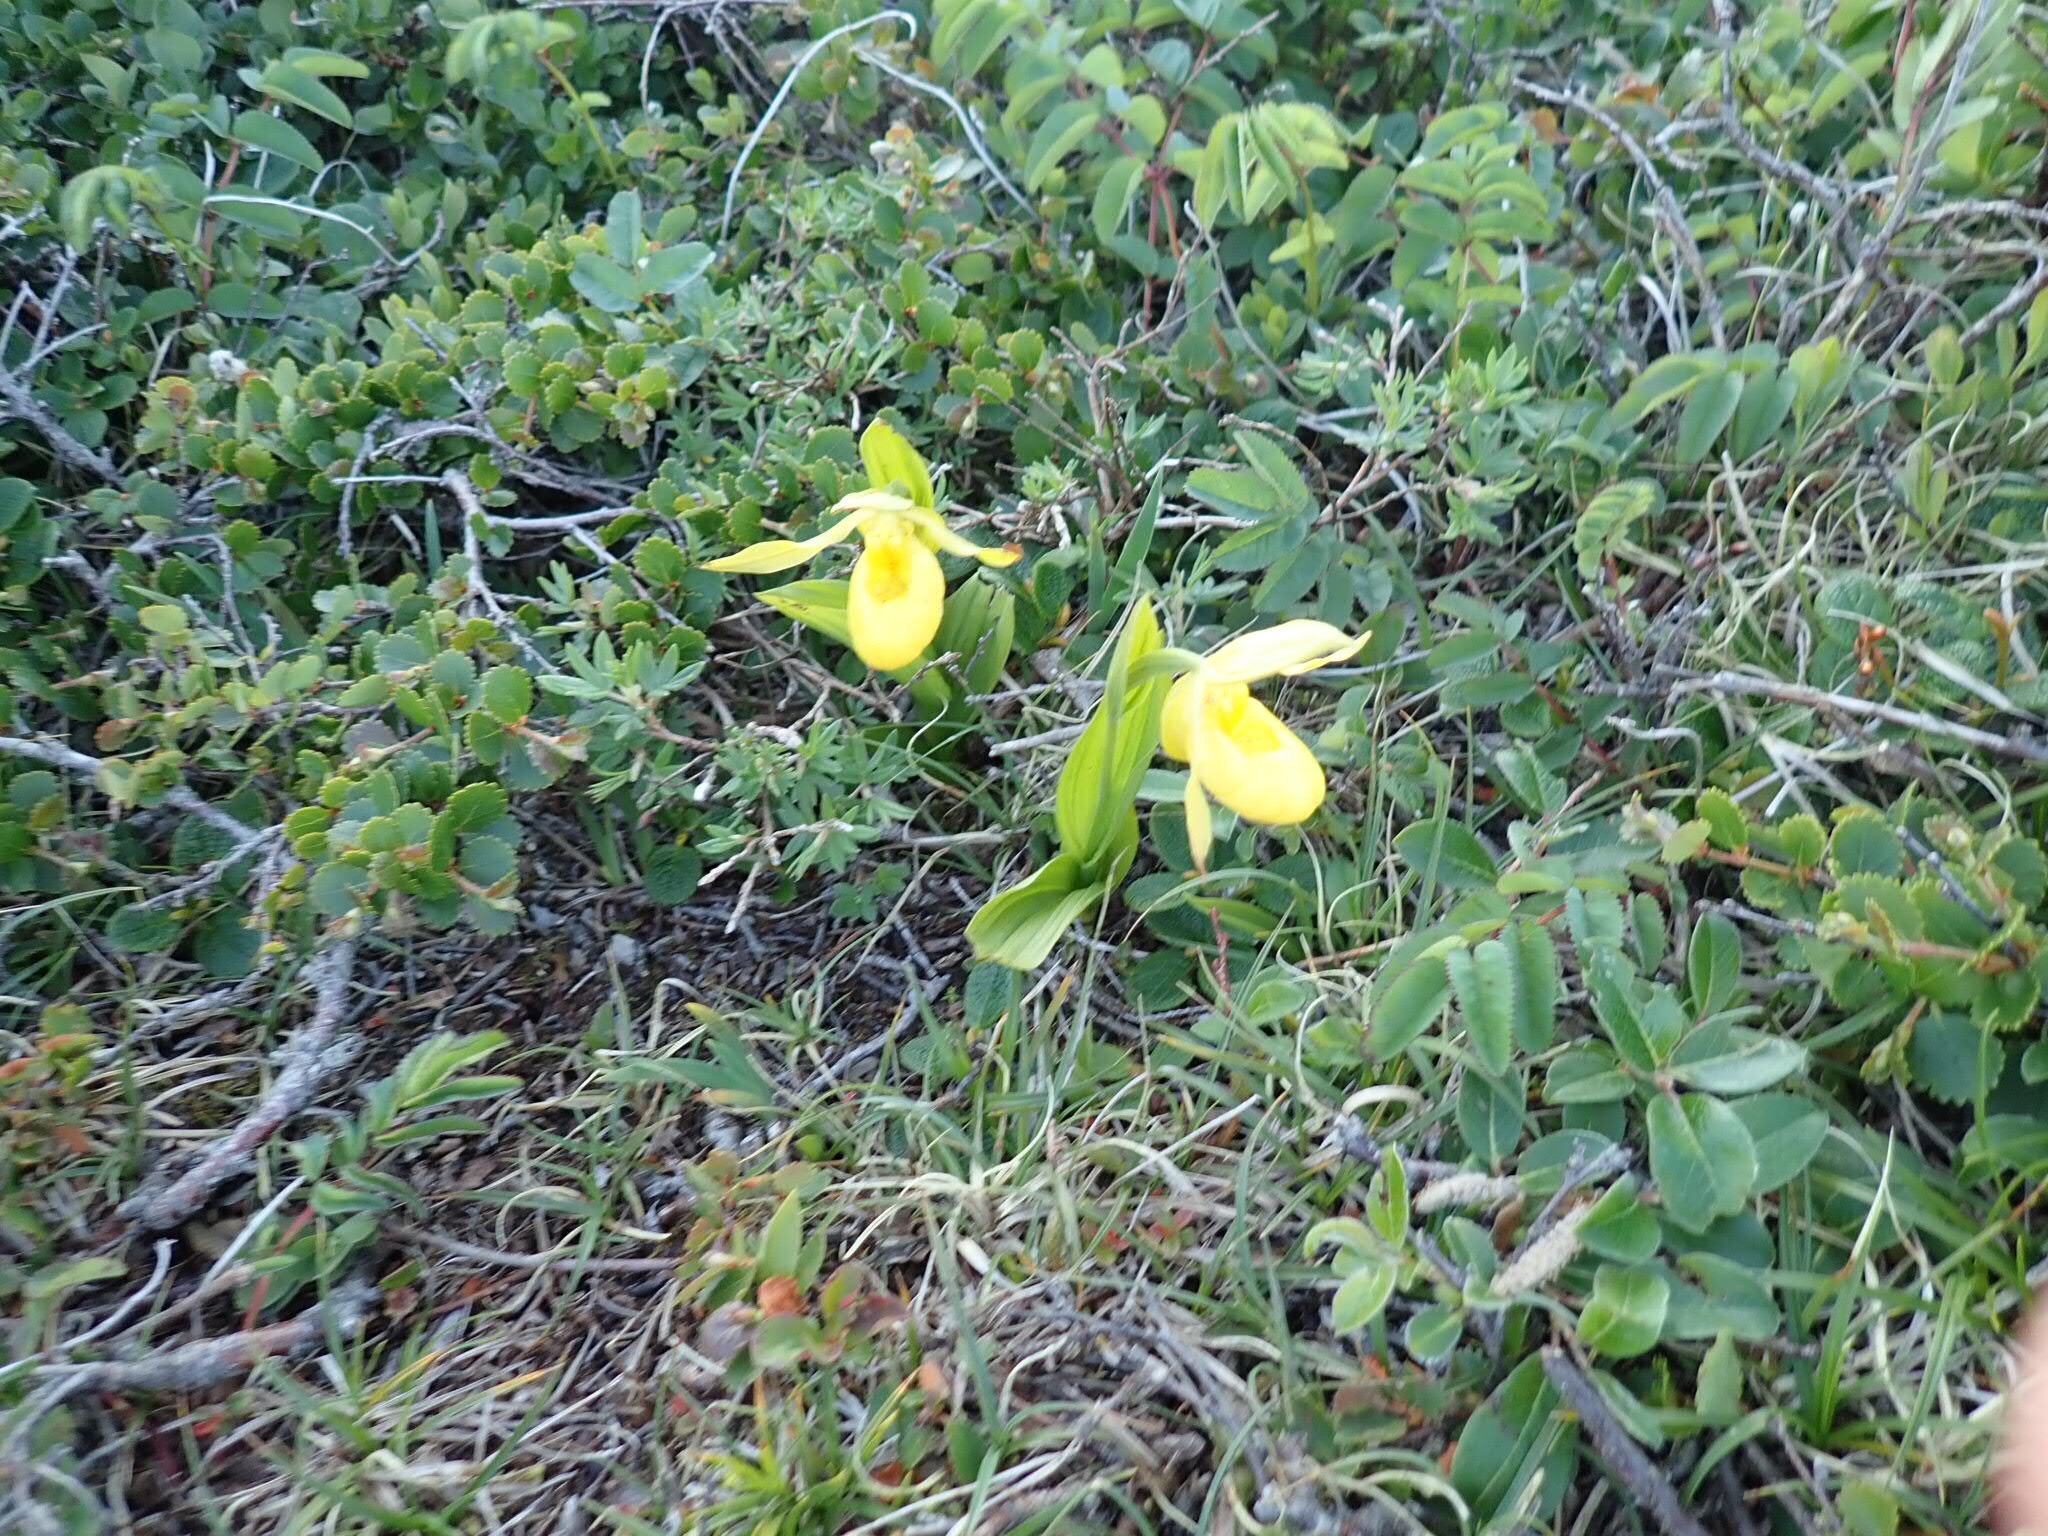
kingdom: Plantae
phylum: Tracheophyta
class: Liliopsida
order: Asparagales
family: Orchidaceae
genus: Cypripedium
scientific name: Cypripedium parviflorum
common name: American yellow lady's-slipper
